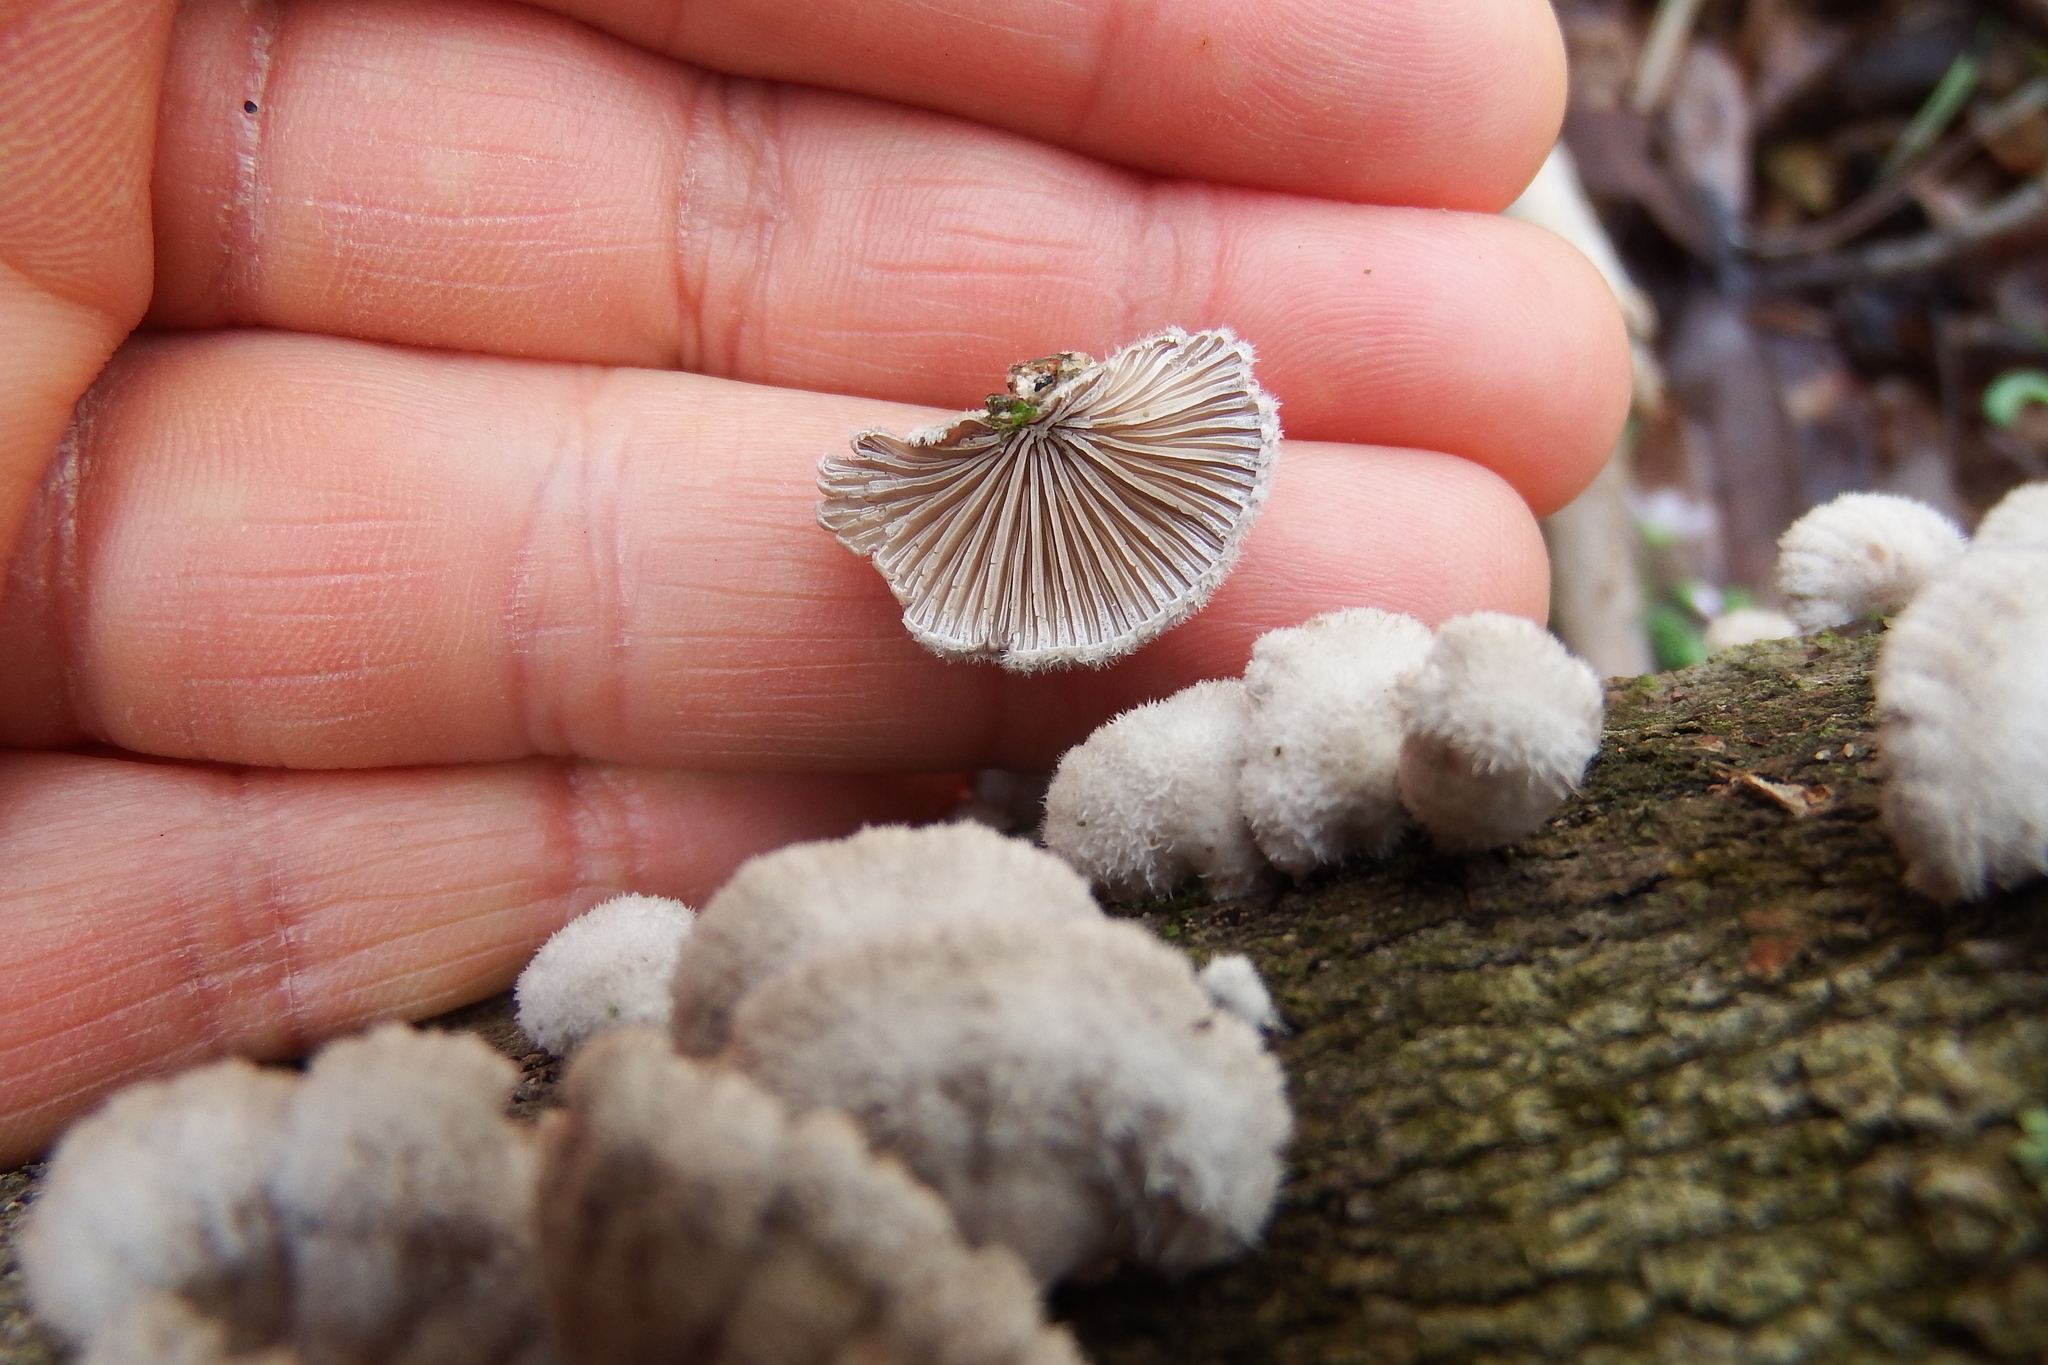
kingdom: Fungi
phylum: Basidiomycota
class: Agaricomycetes
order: Agaricales
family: Schizophyllaceae
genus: Schizophyllum
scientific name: Schizophyllum commune
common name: Common porecrust
